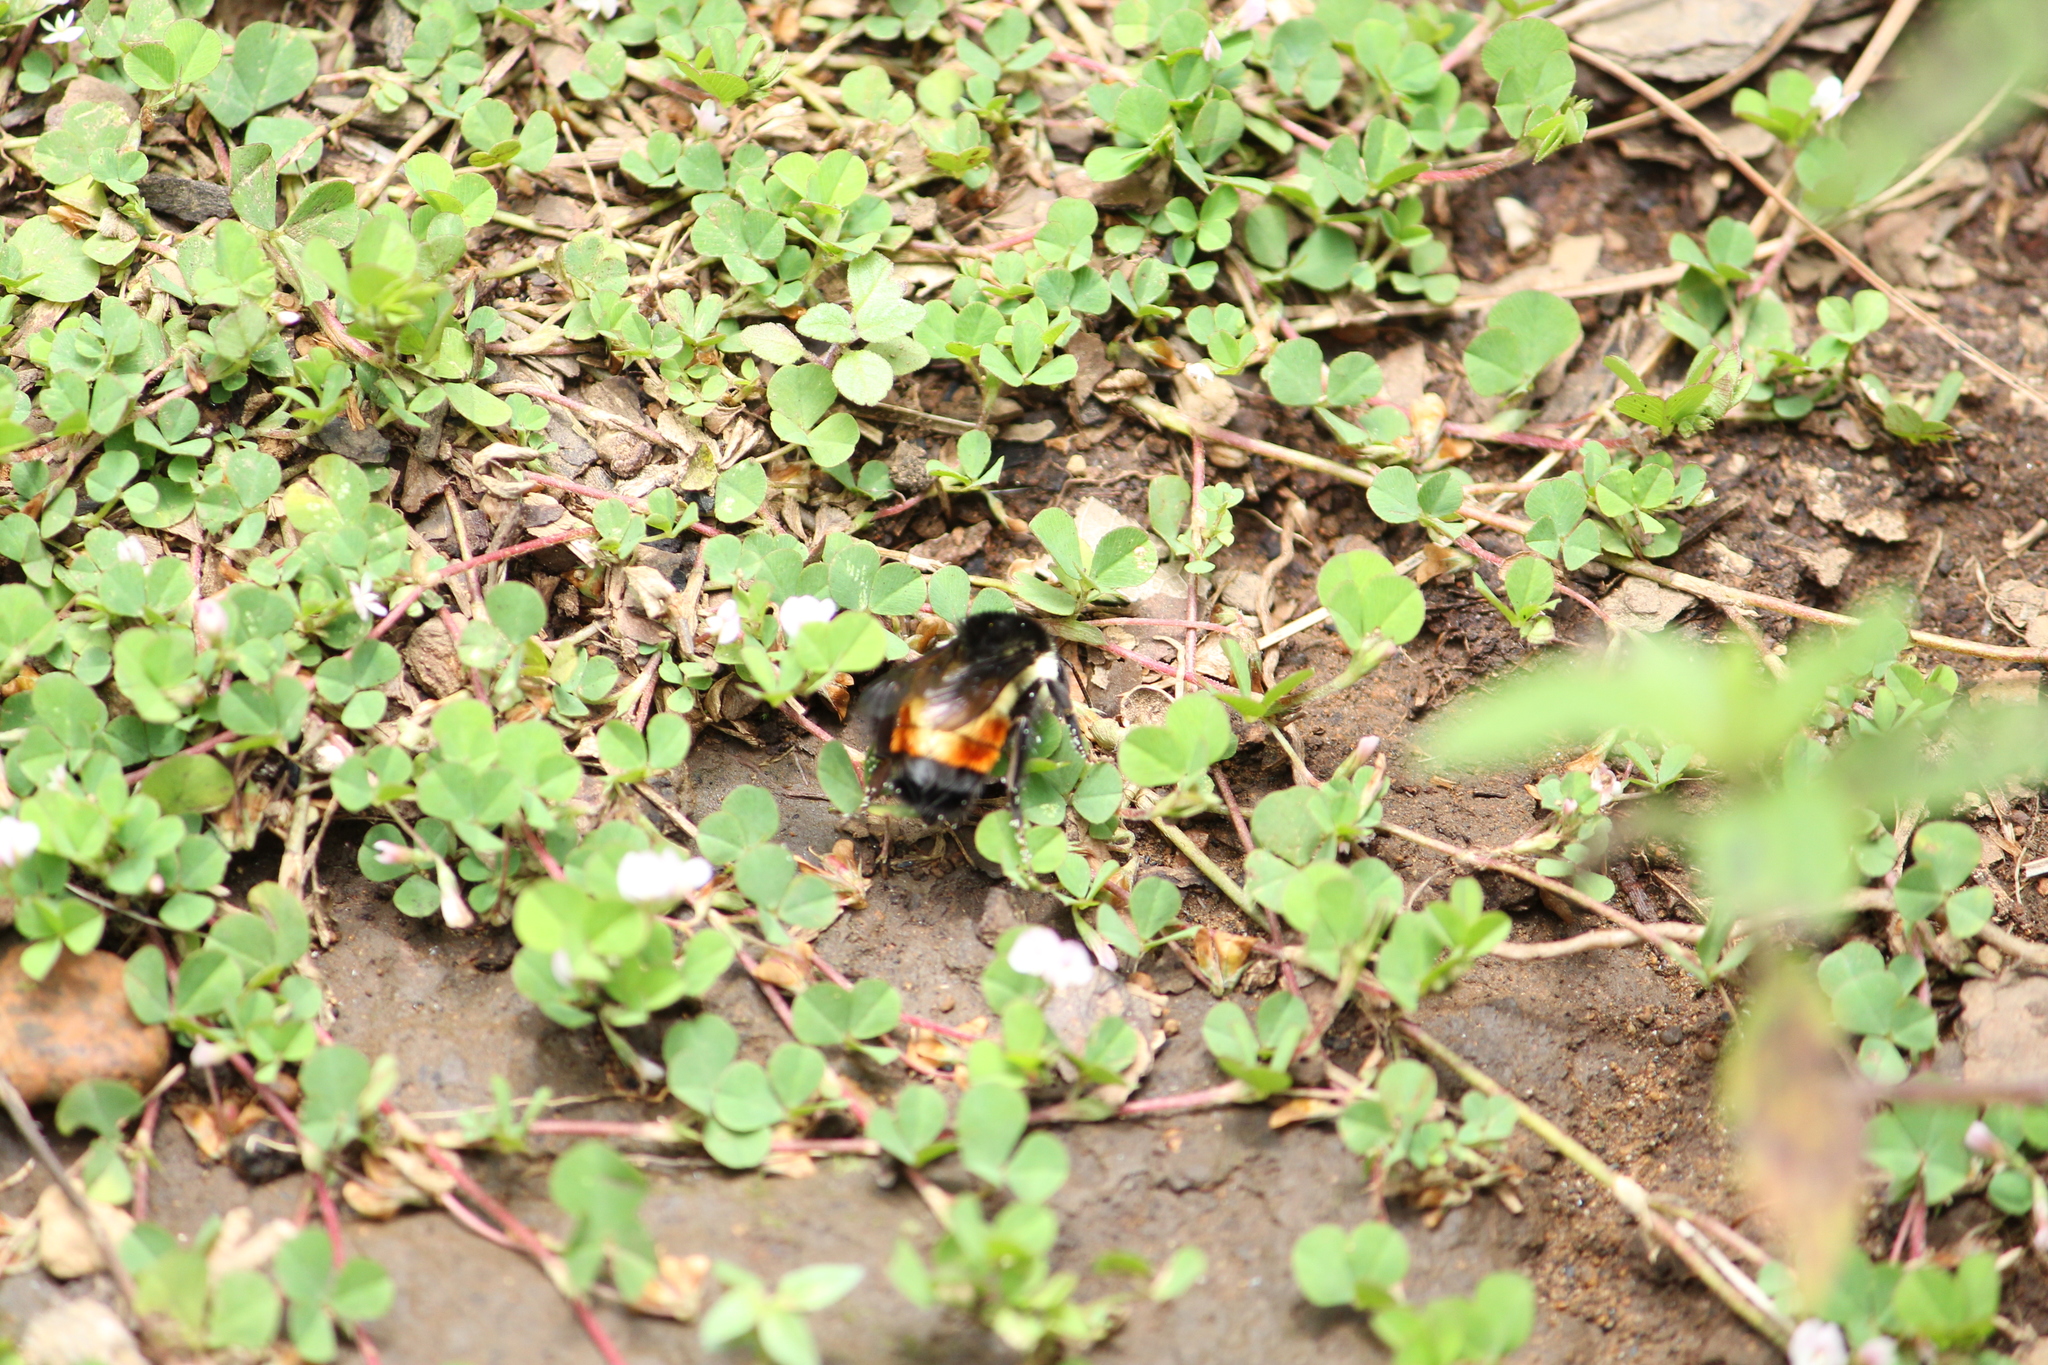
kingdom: Animalia
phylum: Arthropoda
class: Insecta
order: Hymenoptera
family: Apidae
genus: Bombus
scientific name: Bombus ephippiatus
